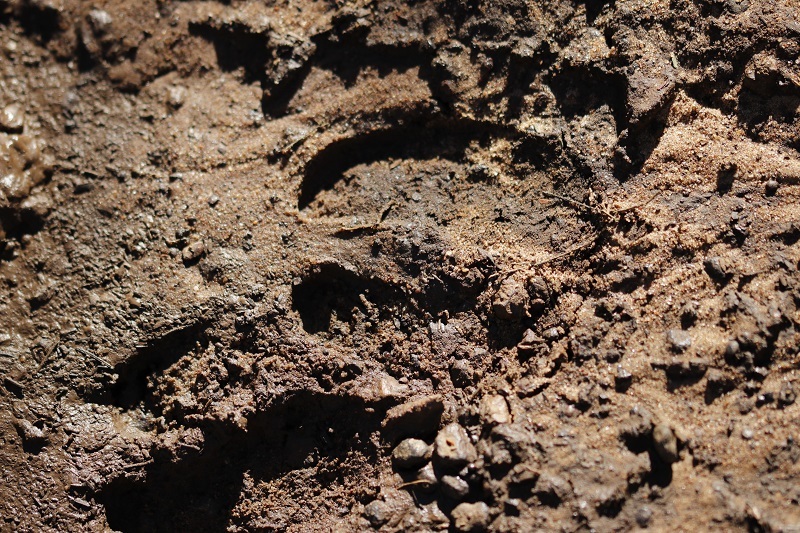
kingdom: Animalia
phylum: Chordata
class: Mammalia
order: Artiodactyla
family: Suidae
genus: Potamochoerus
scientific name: Potamochoerus larvatus
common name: Bushpig
